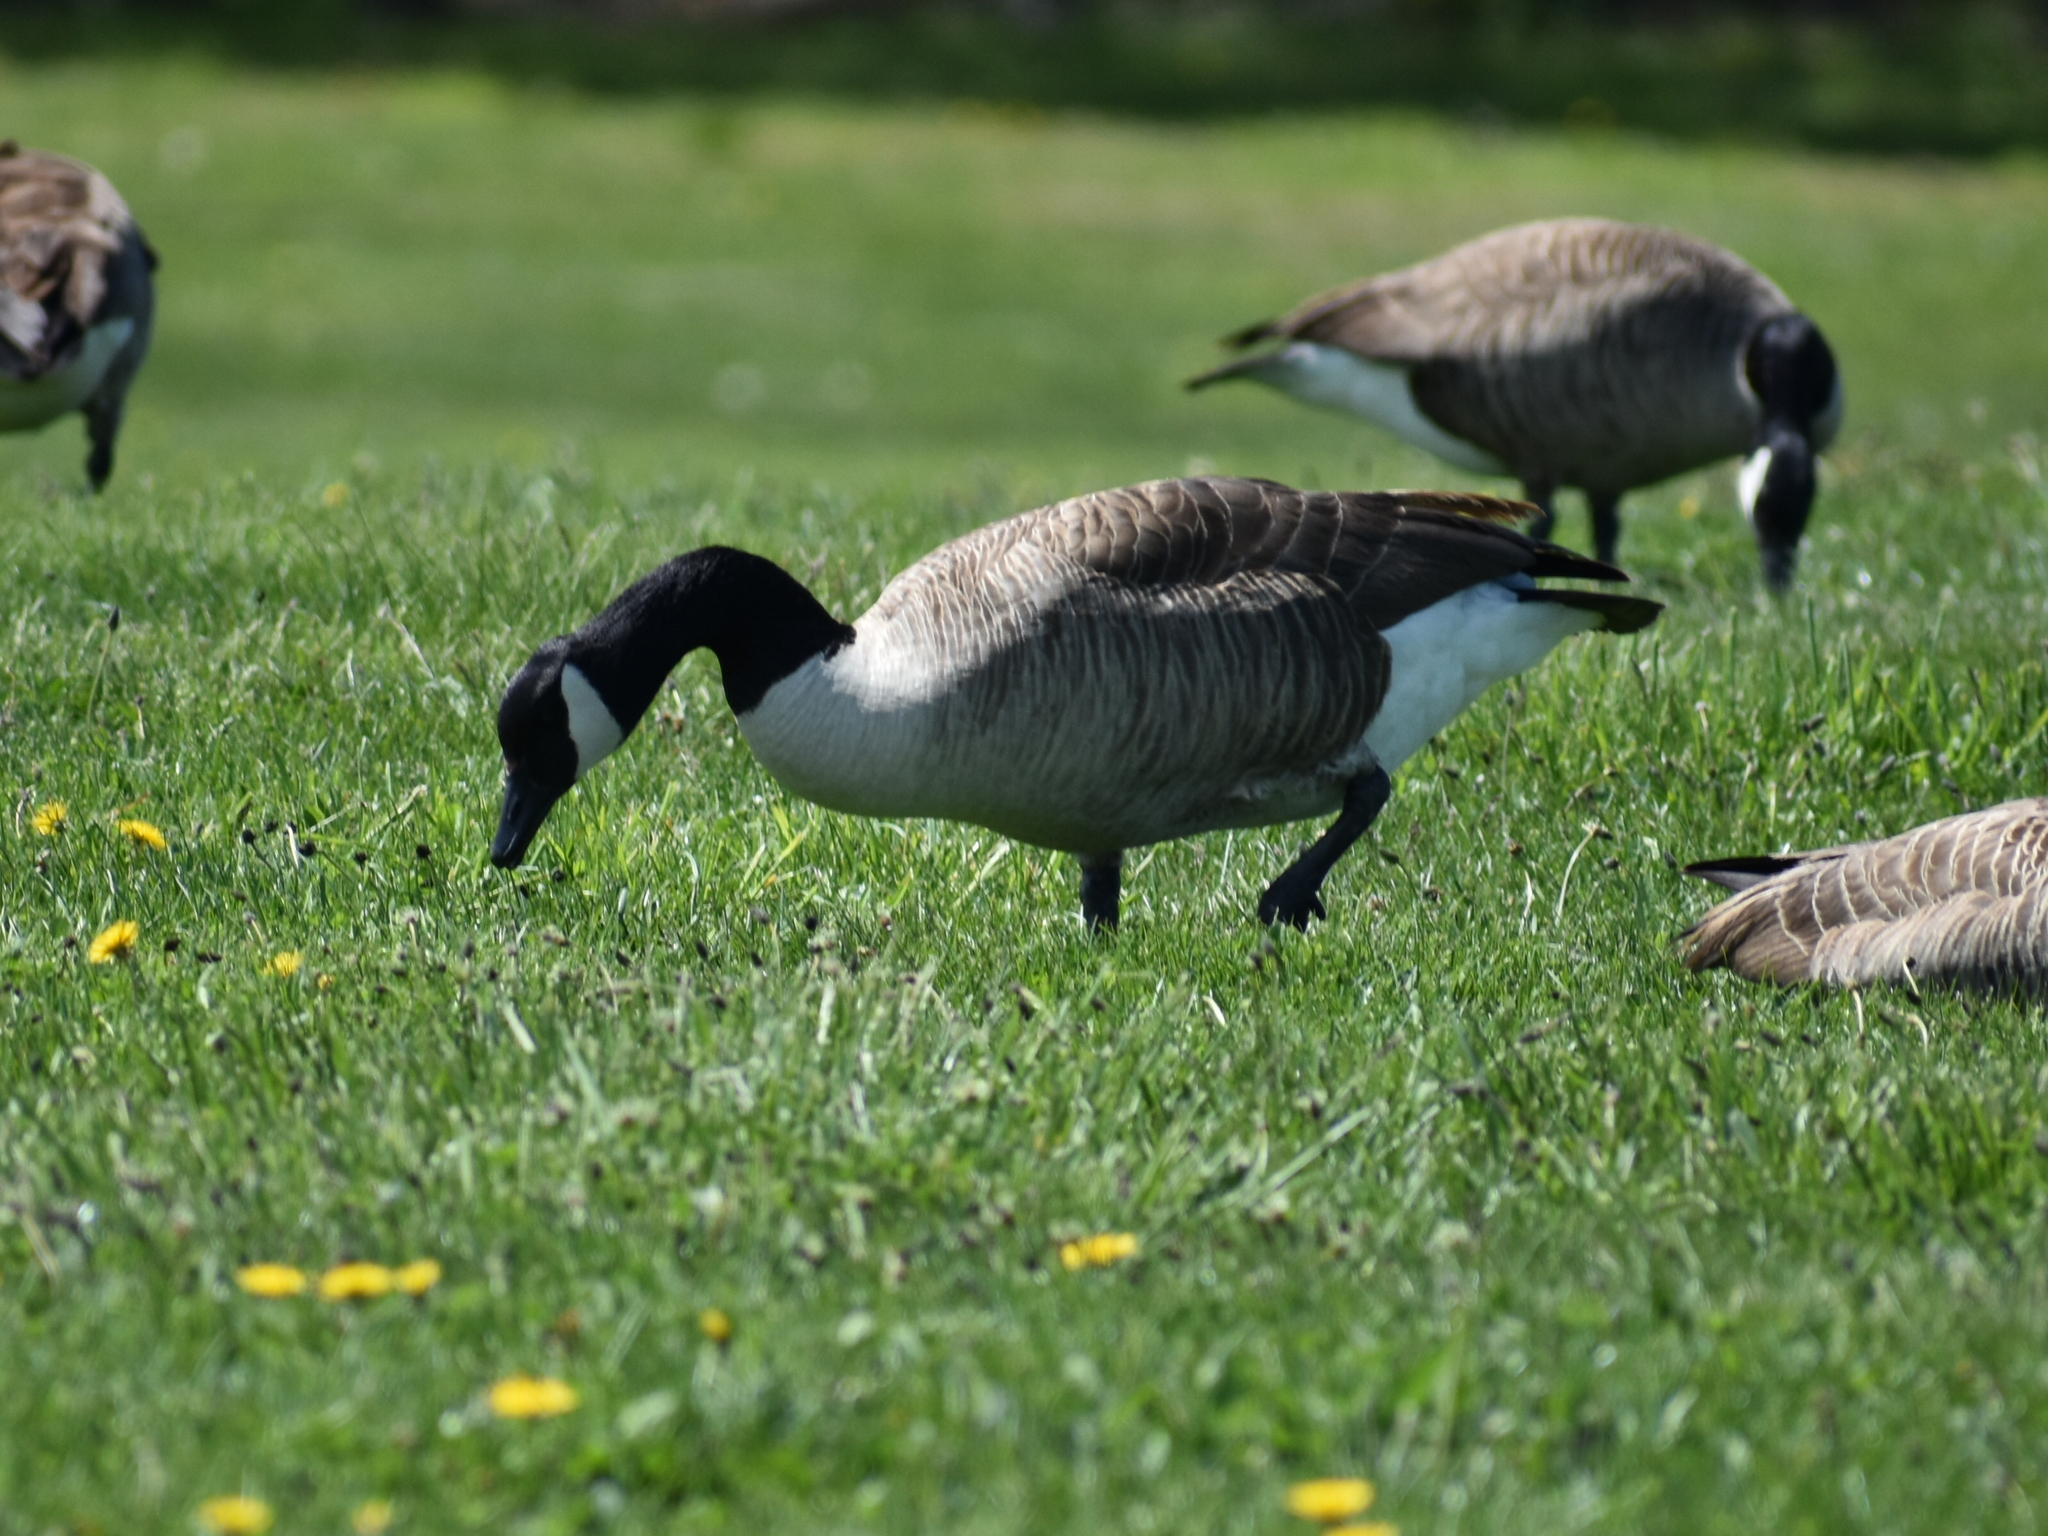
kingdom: Animalia
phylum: Chordata
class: Aves
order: Anseriformes
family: Anatidae
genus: Branta
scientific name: Branta canadensis
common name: Canada goose
